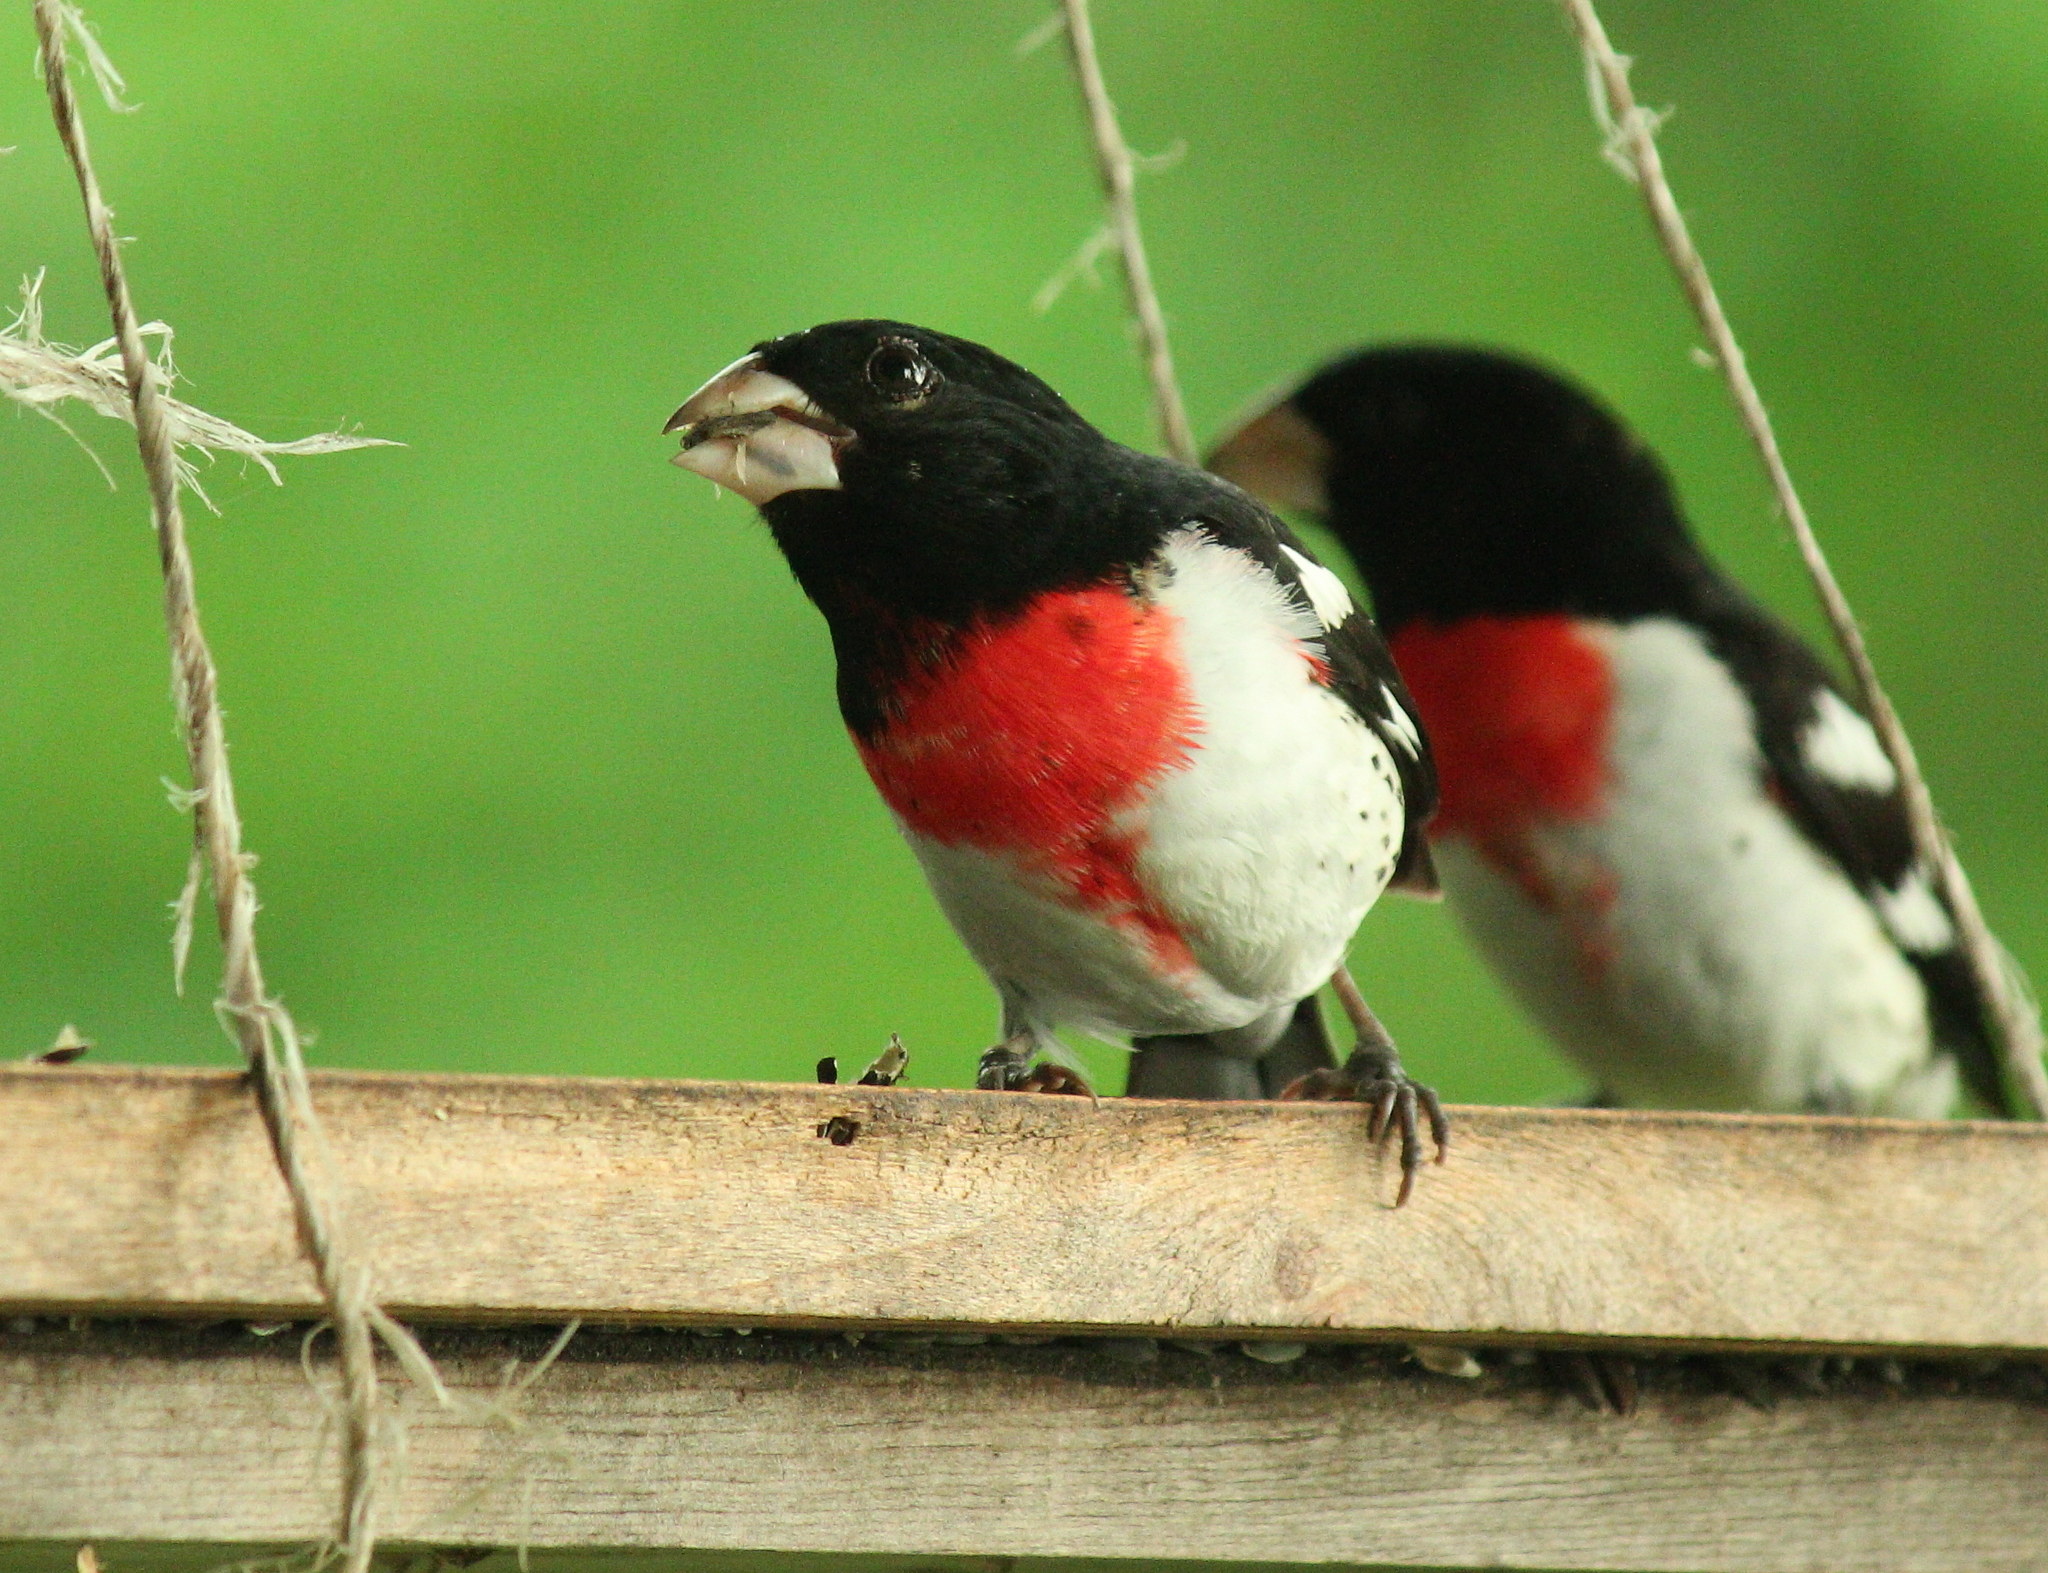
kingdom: Animalia
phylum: Chordata
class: Aves
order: Passeriformes
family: Cardinalidae
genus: Pheucticus
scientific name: Pheucticus ludovicianus
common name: Rose-breasted grosbeak
